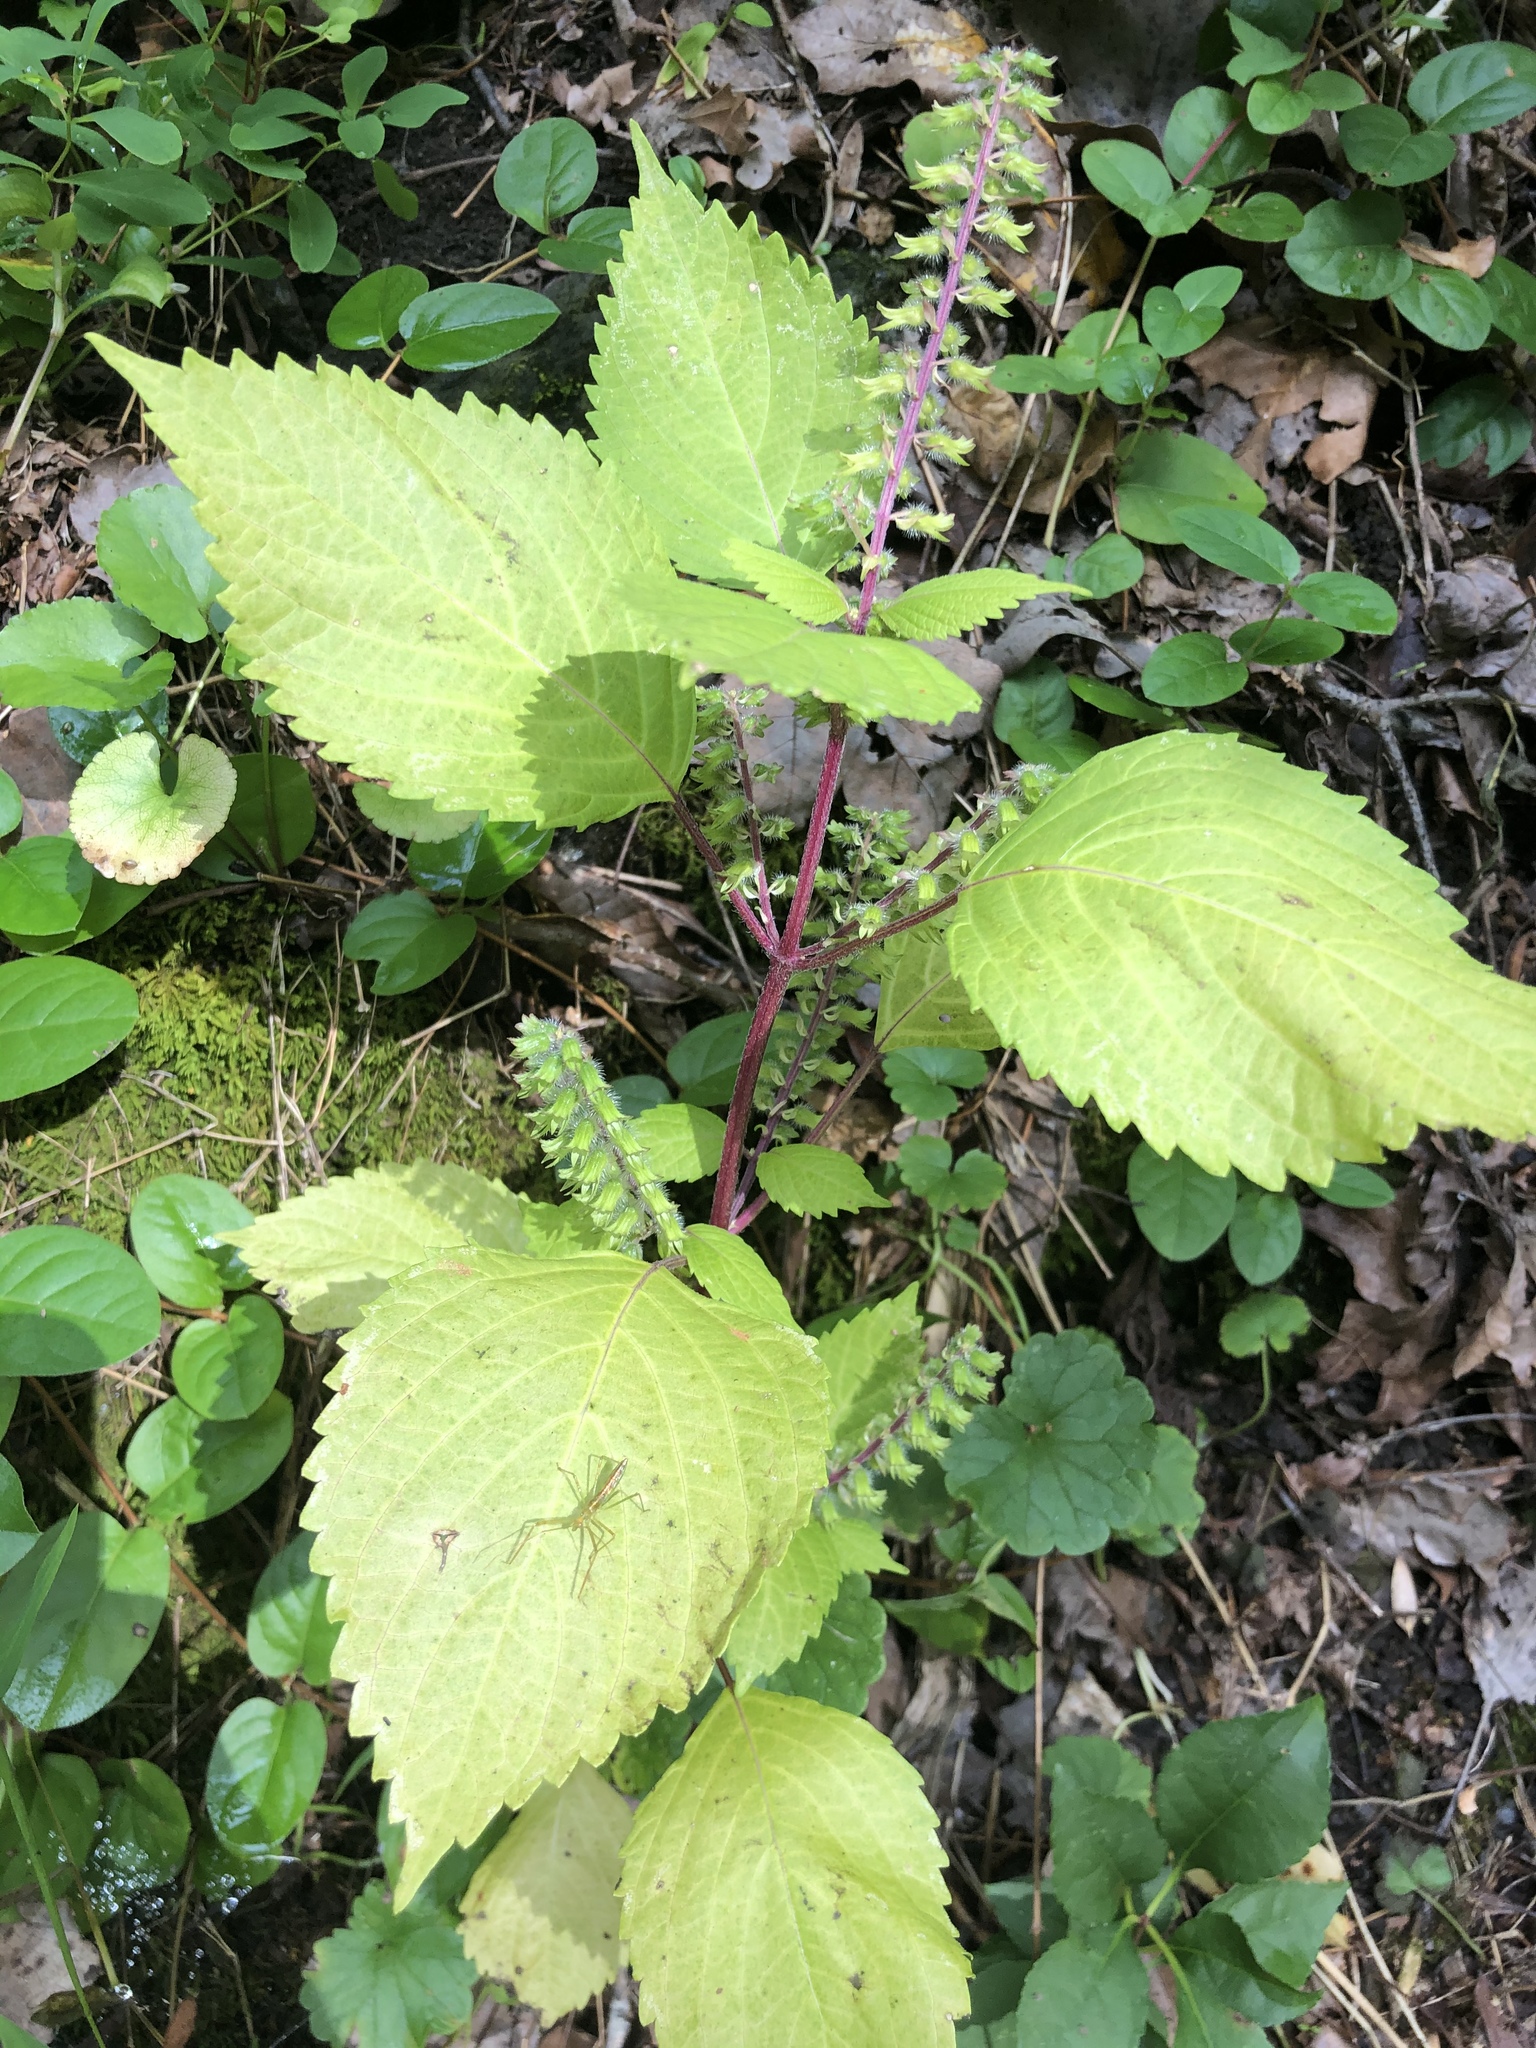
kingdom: Plantae
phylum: Tracheophyta
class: Magnoliopsida
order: Lamiales
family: Lamiaceae
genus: Perilla
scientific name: Perilla frutescens
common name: Perilla
